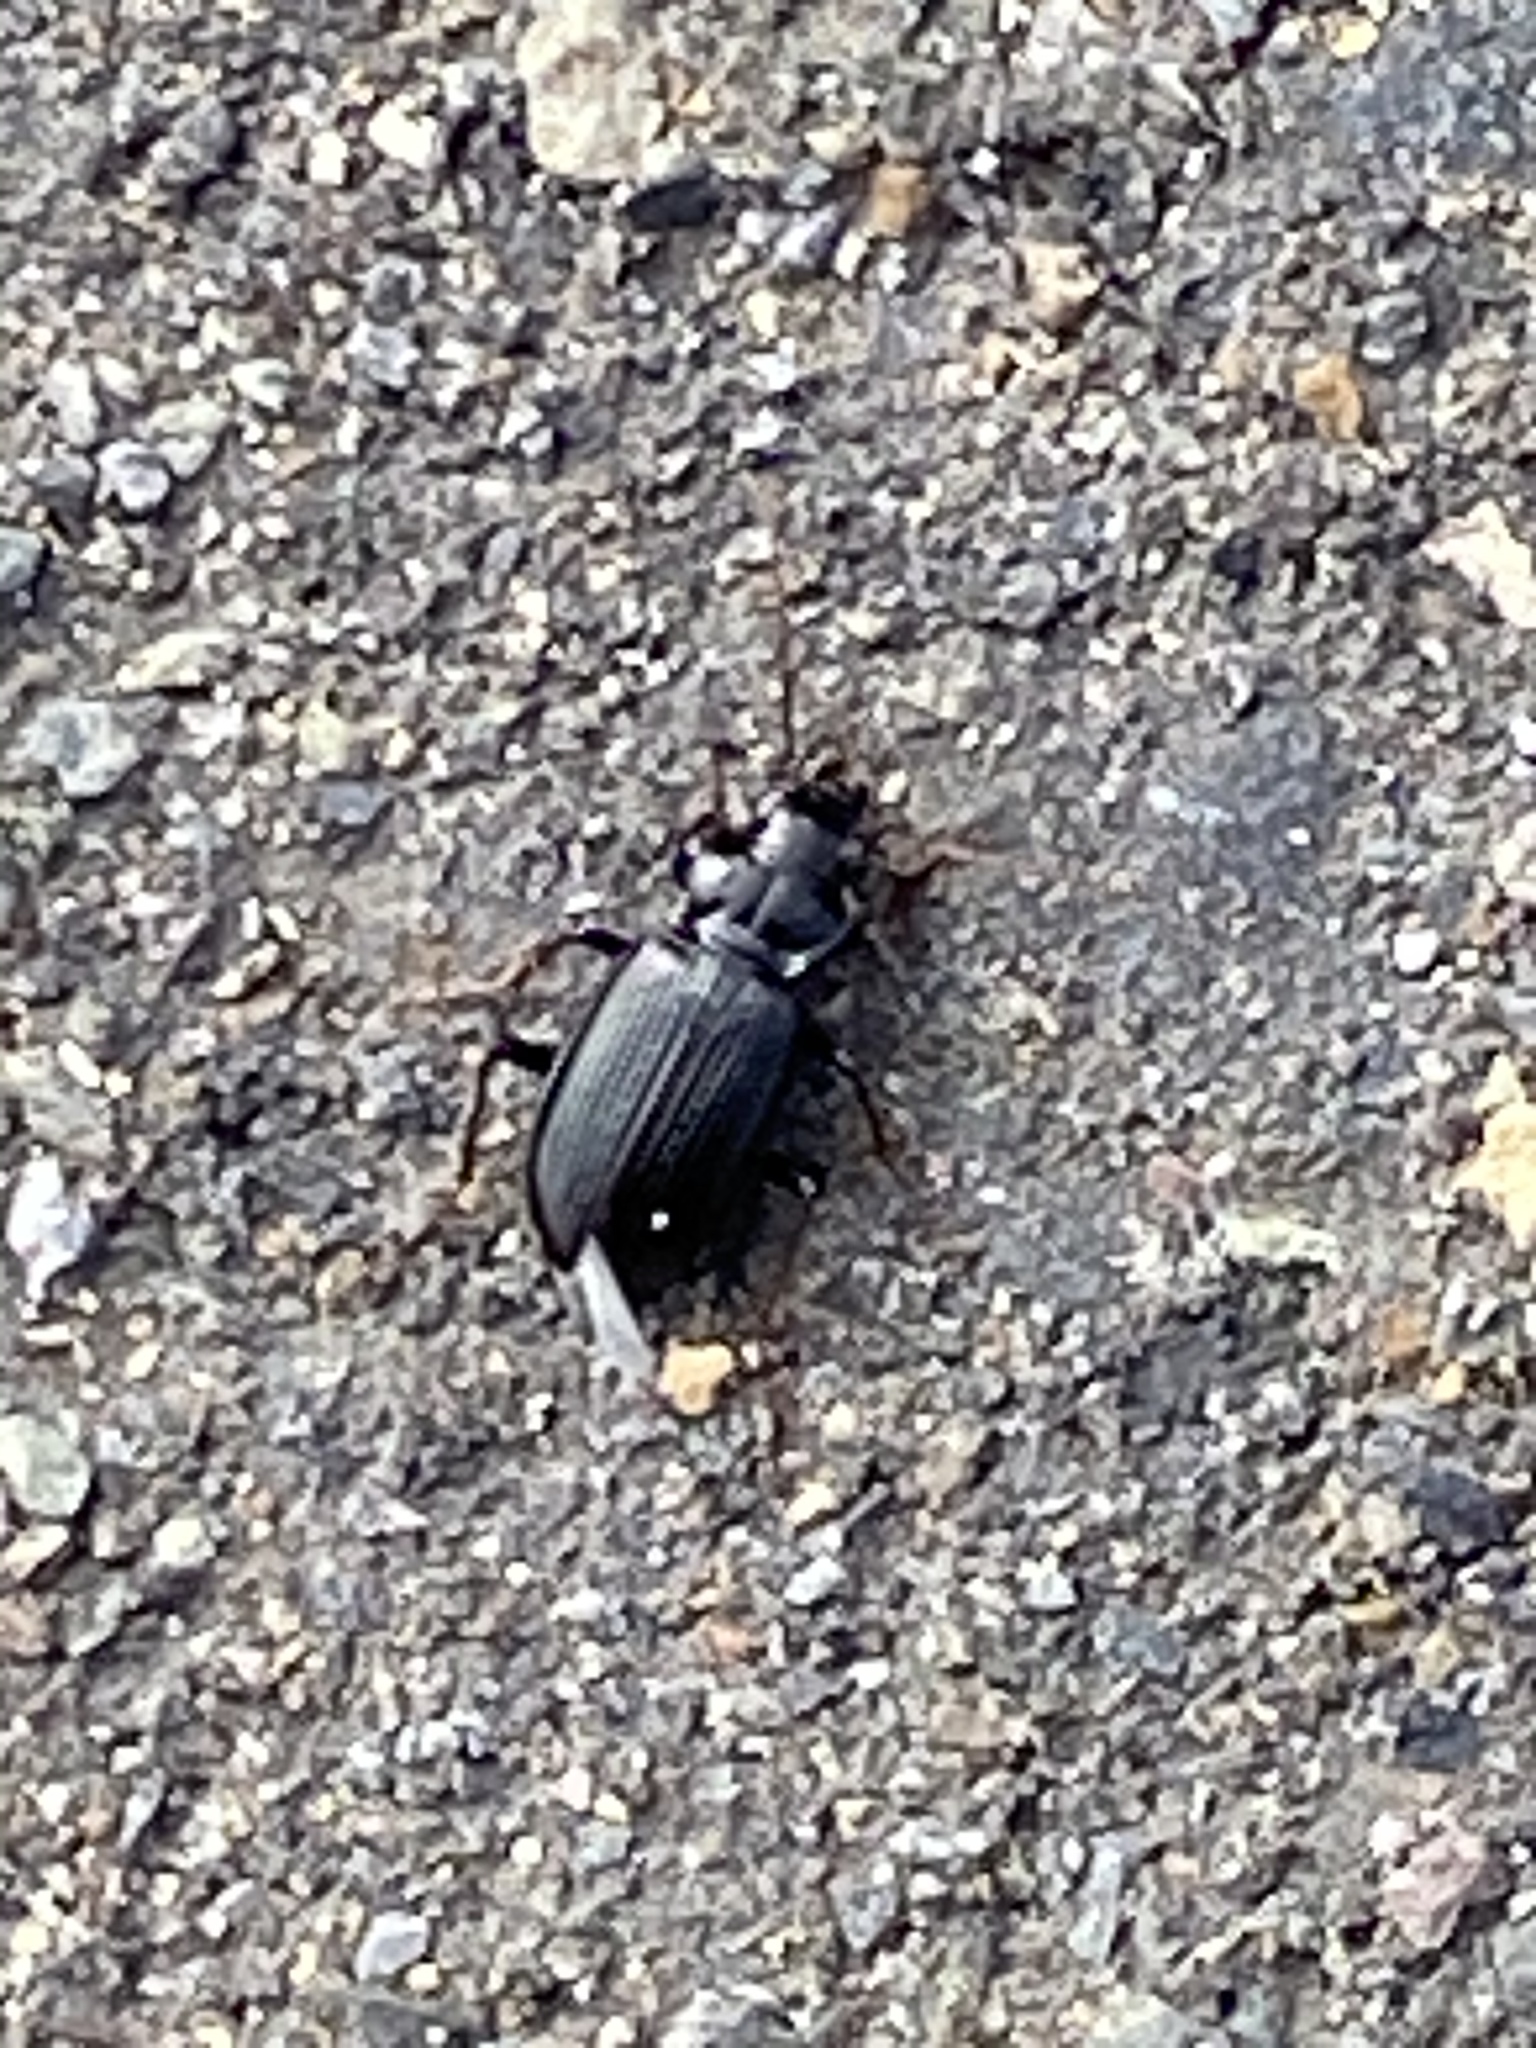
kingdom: Animalia
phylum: Arthropoda
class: Insecta
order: Coleoptera
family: Carabidae
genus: Nebria
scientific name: Nebria brevicollis
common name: Short-necked gazelle beetle
